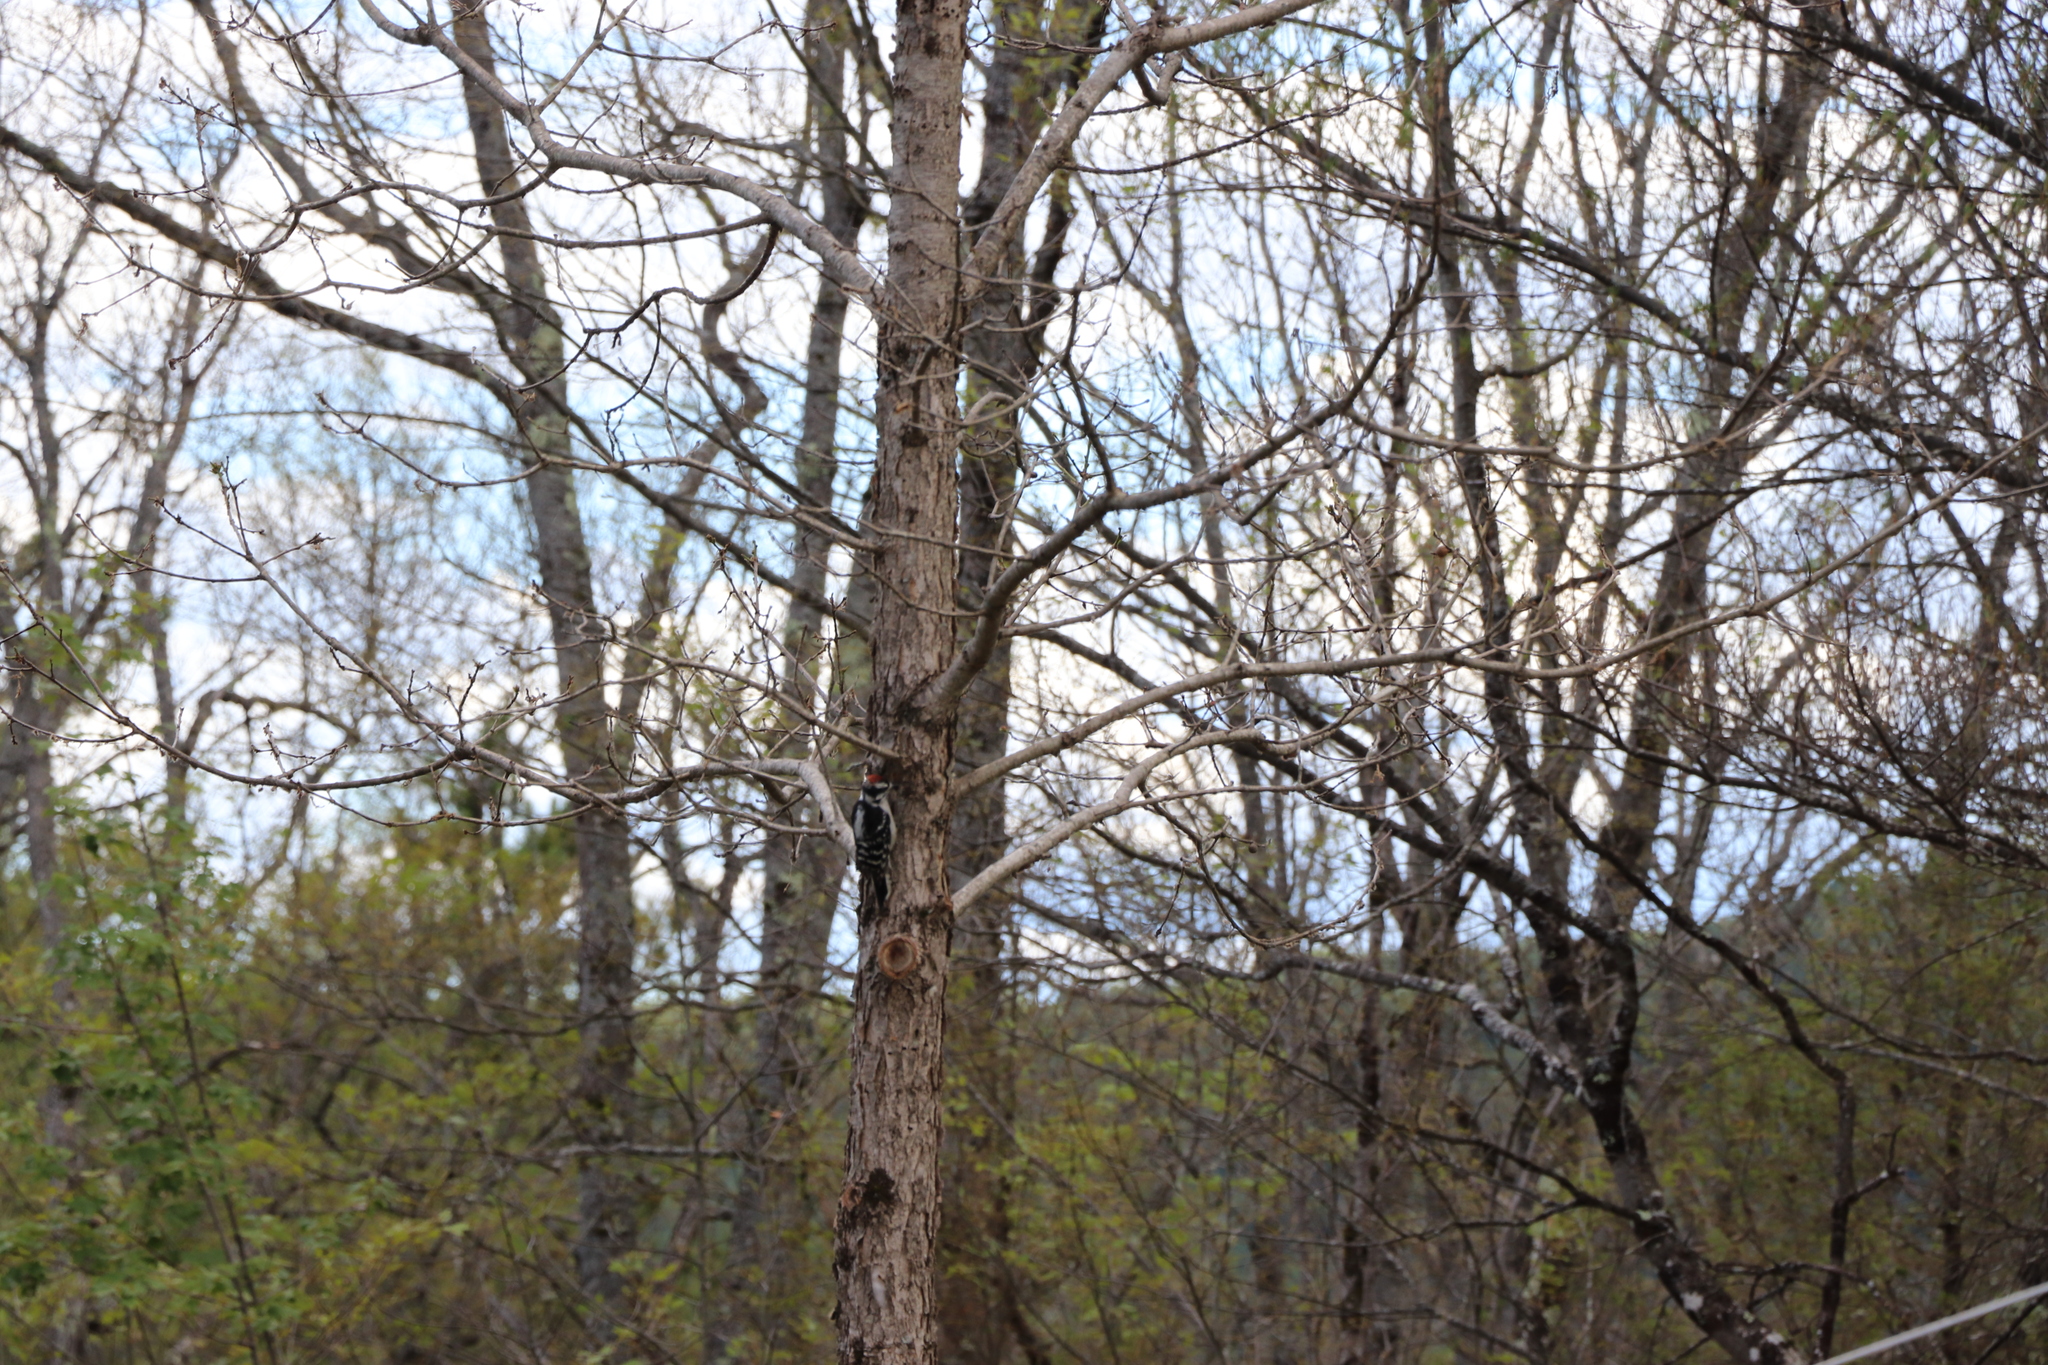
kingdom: Animalia
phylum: Chordata
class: Aves
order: Piciformes
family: Picidae
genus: Dryobates
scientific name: Dryobates pubescens
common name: Downy woodpecker
